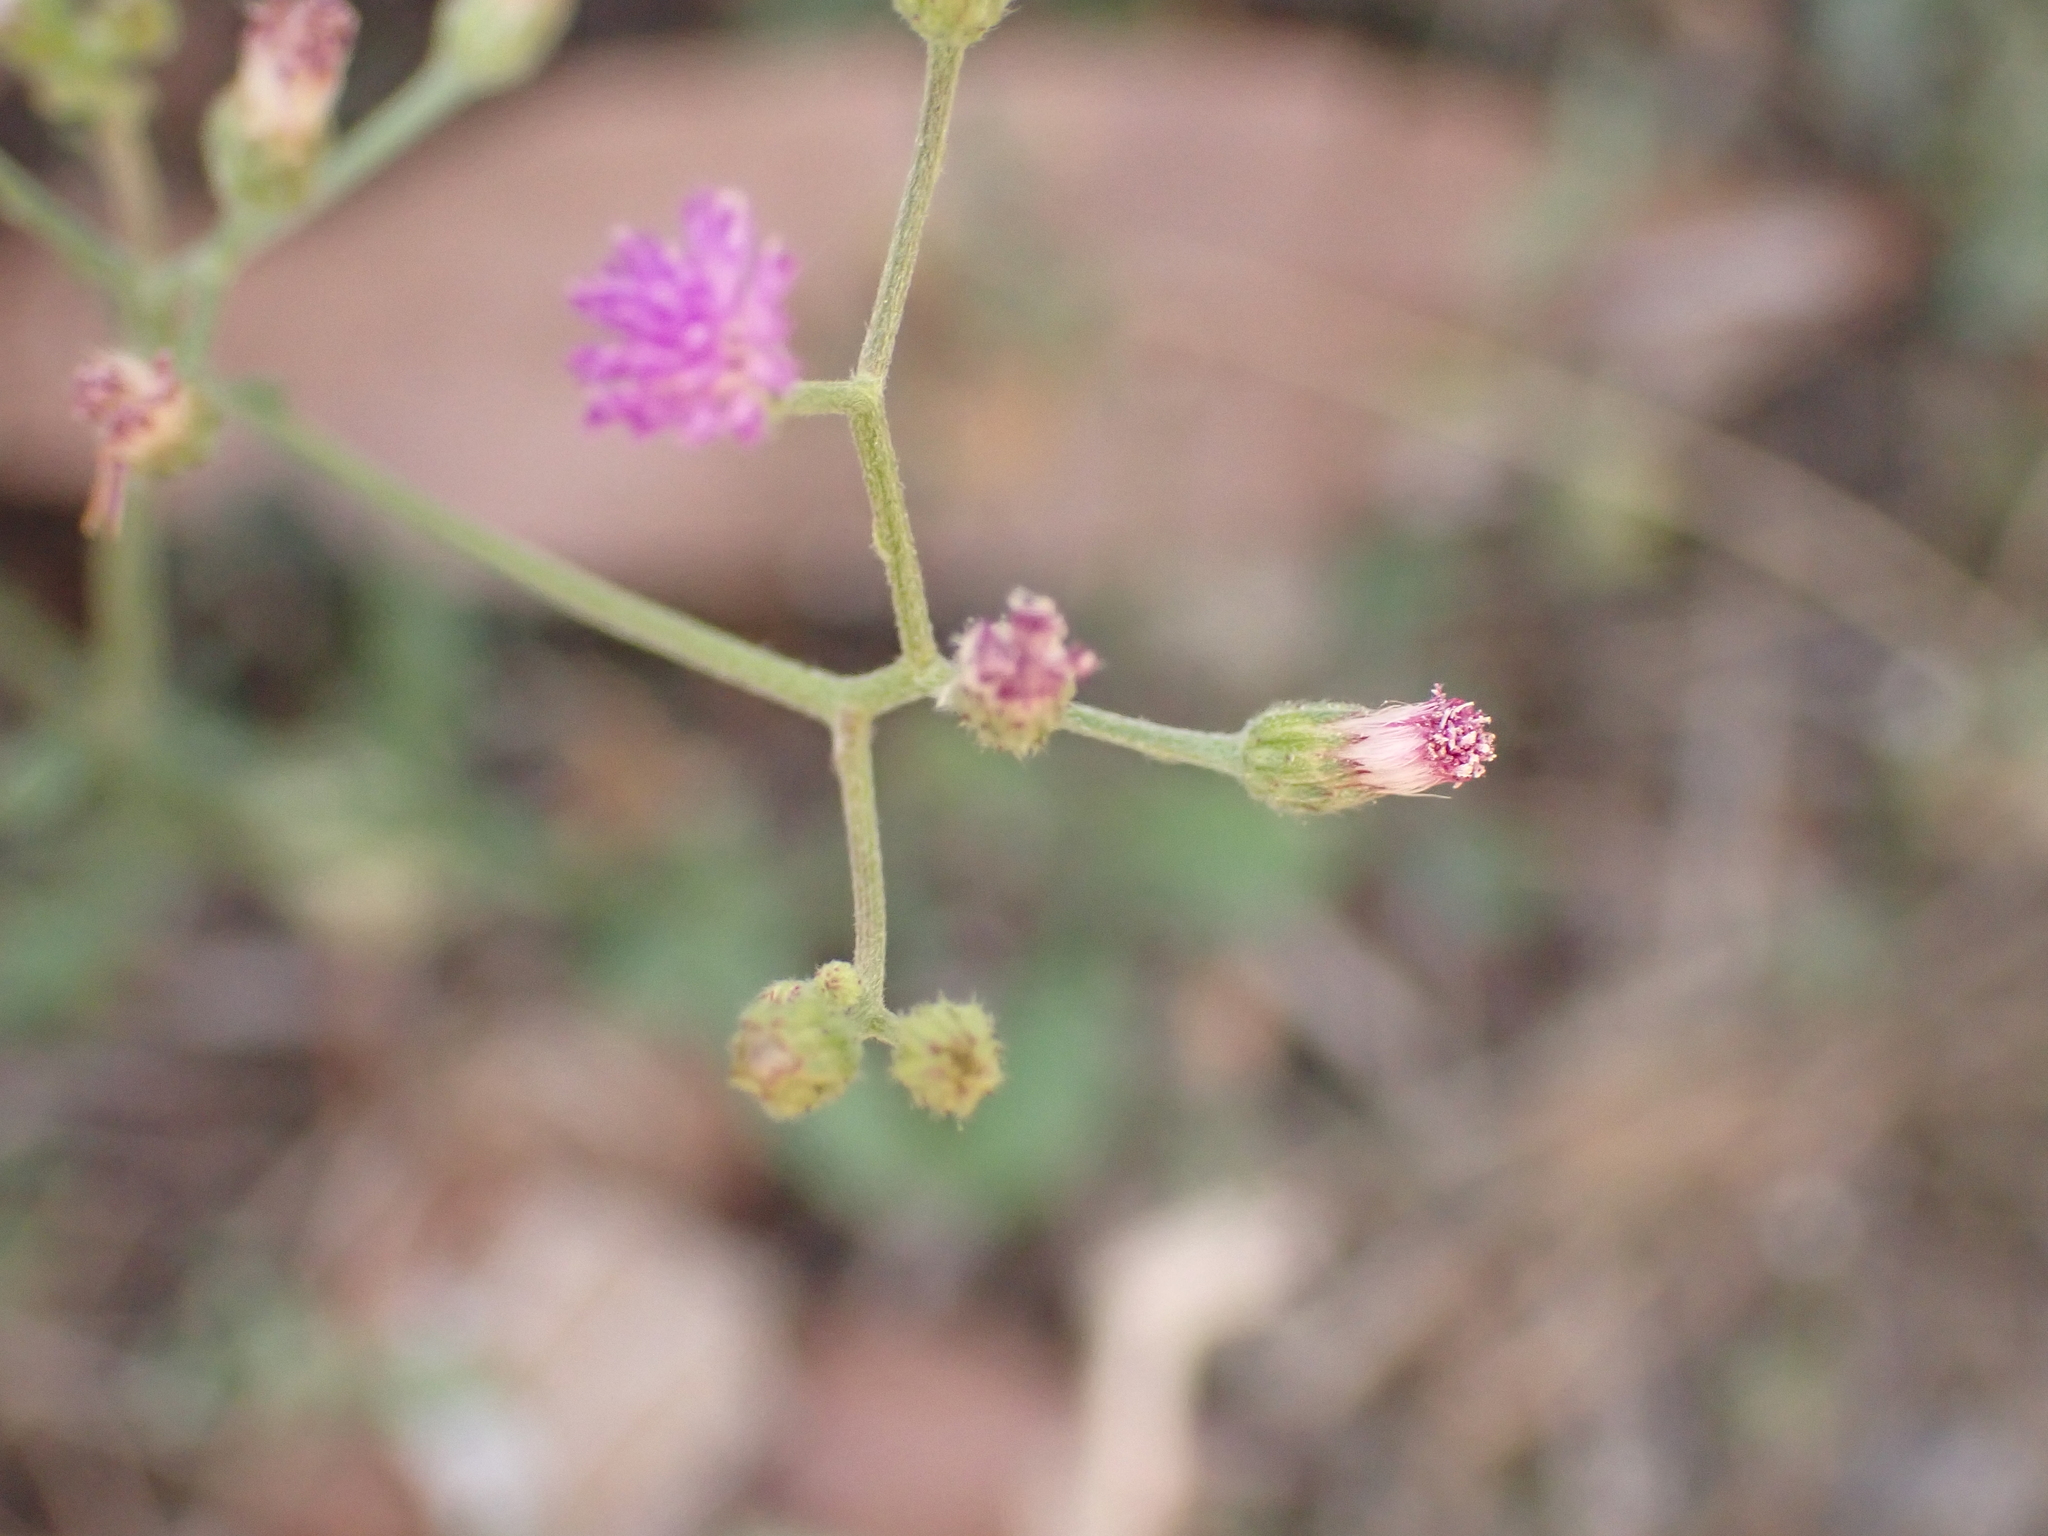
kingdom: Plantae
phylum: Tracheophyta
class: Magnoliopsida
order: Asterales
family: Asteraceae
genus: Cyanthillium
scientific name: Cyanthillium cinereum
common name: Little ironweed
